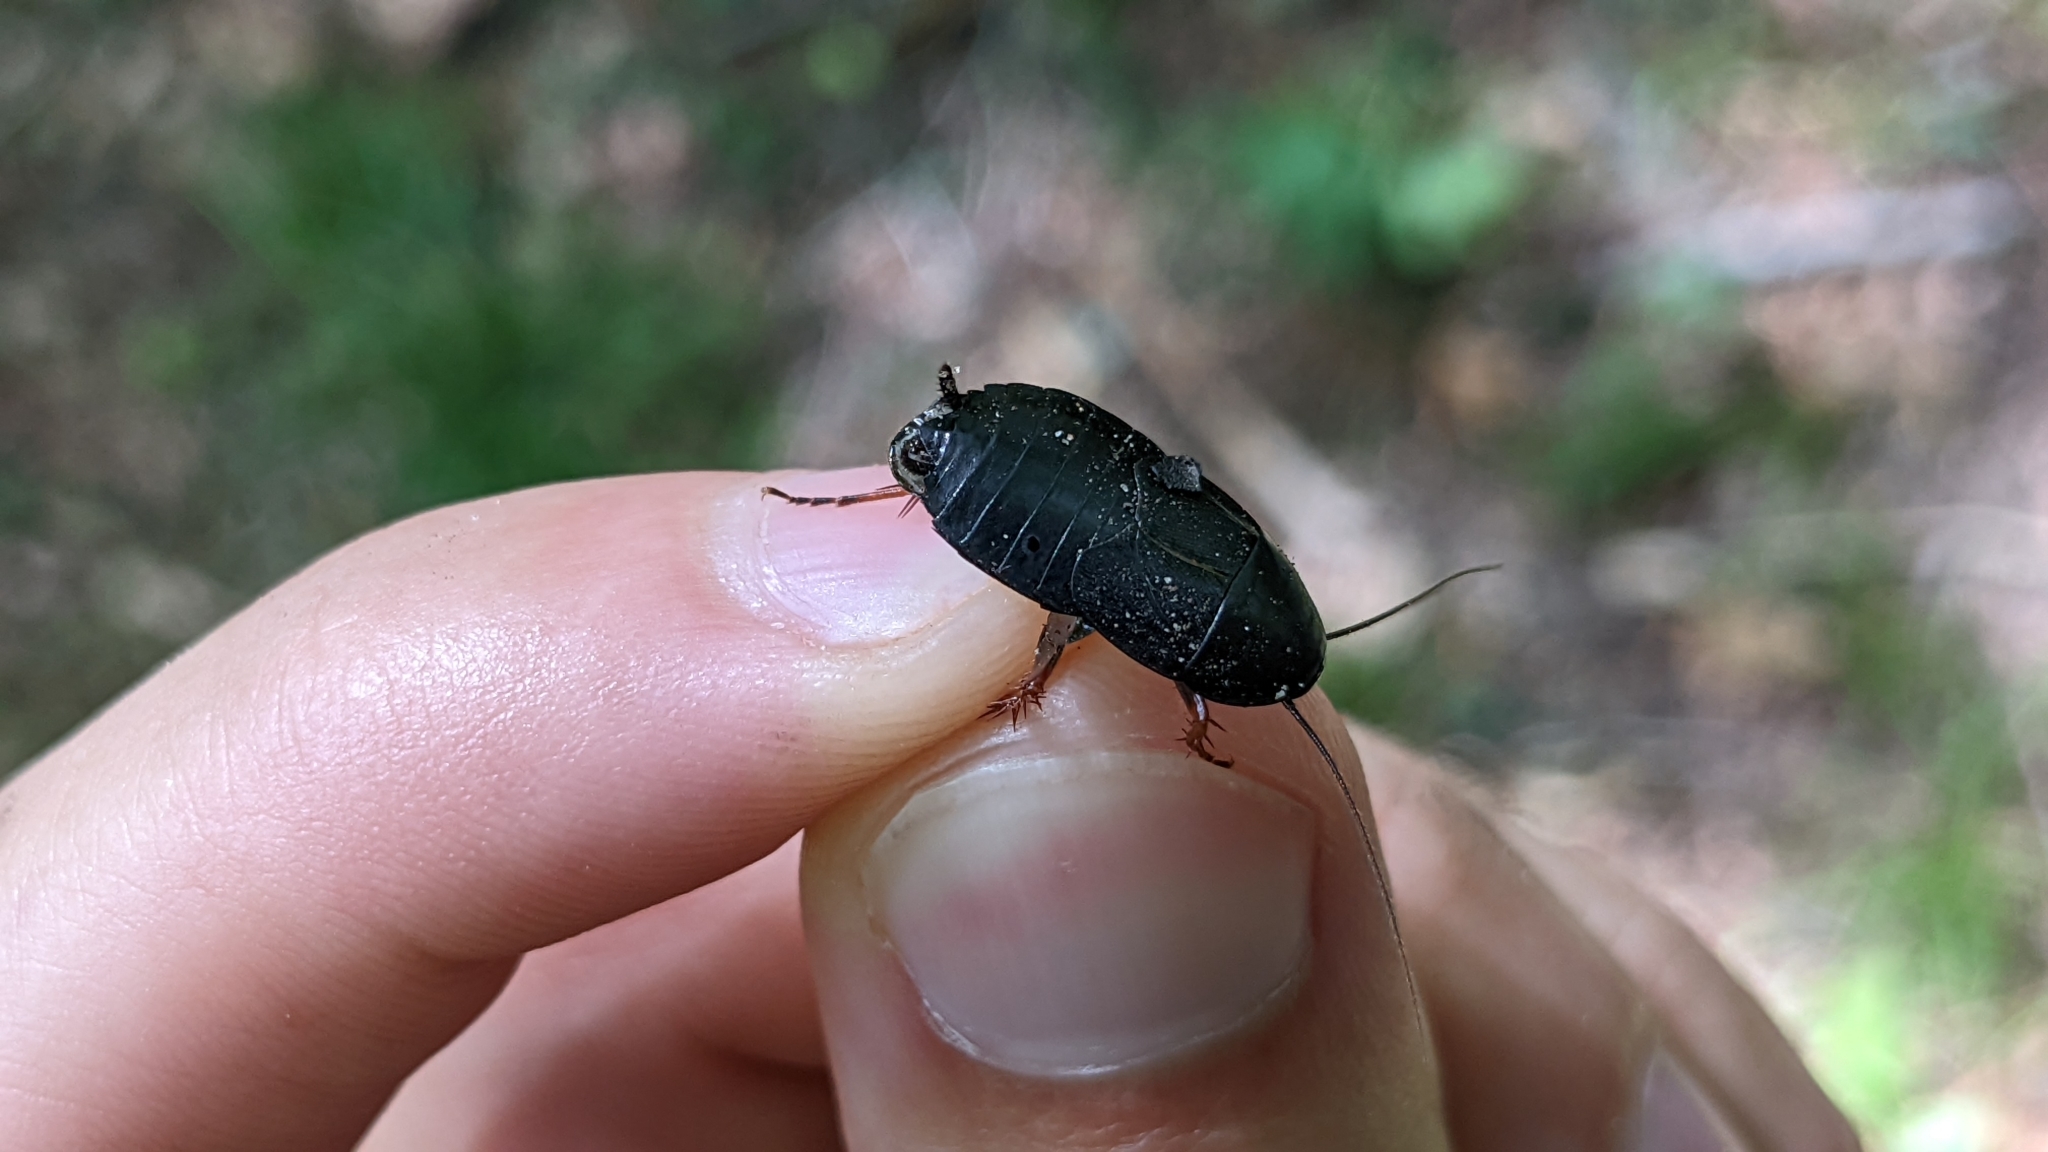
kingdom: Animalia
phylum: Arthropoda
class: Insecta
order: Blattodea
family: Ectobiidae
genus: Ischnoptera
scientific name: Ischnoptera deropeltiformis
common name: Dark wood cockroach
